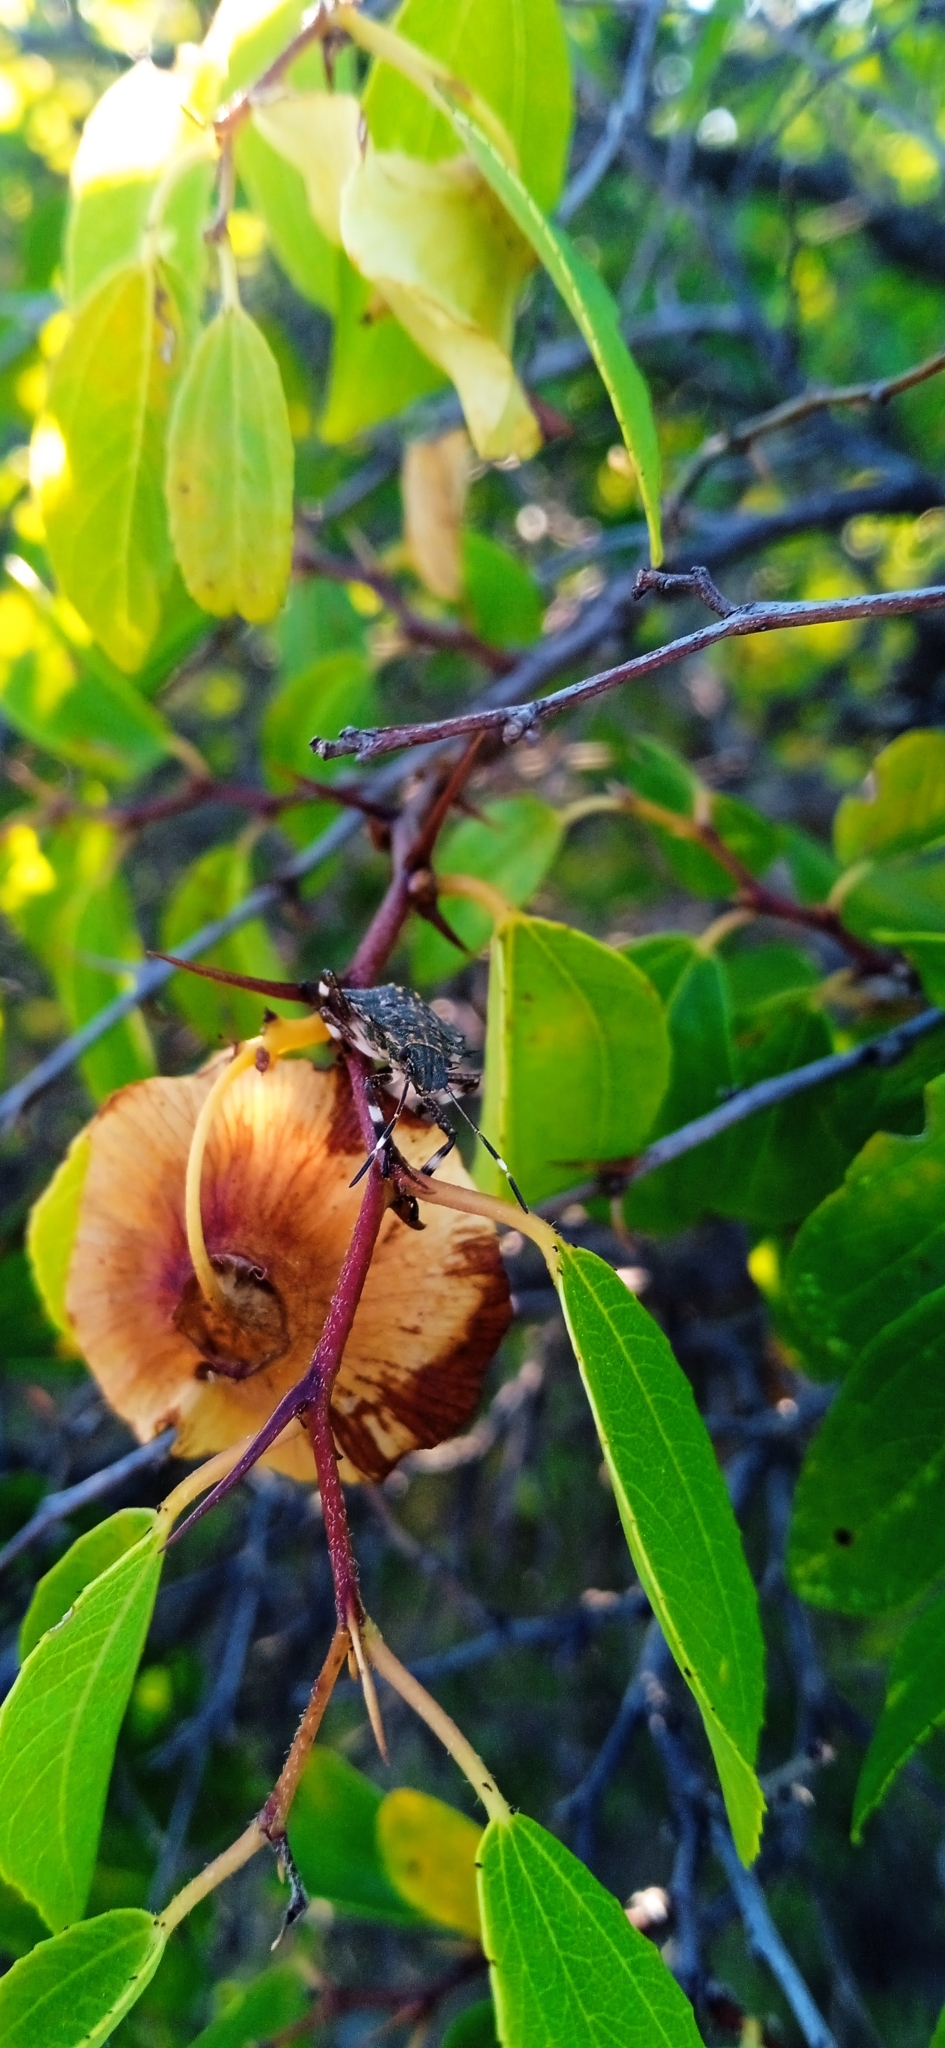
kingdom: Plantae
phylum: Tracheophyta
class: Magnoliopsida
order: Rosales
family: Rhamnaceae
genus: Paliurus
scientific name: Paliurus spina-christi
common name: Jeruselem thorn
